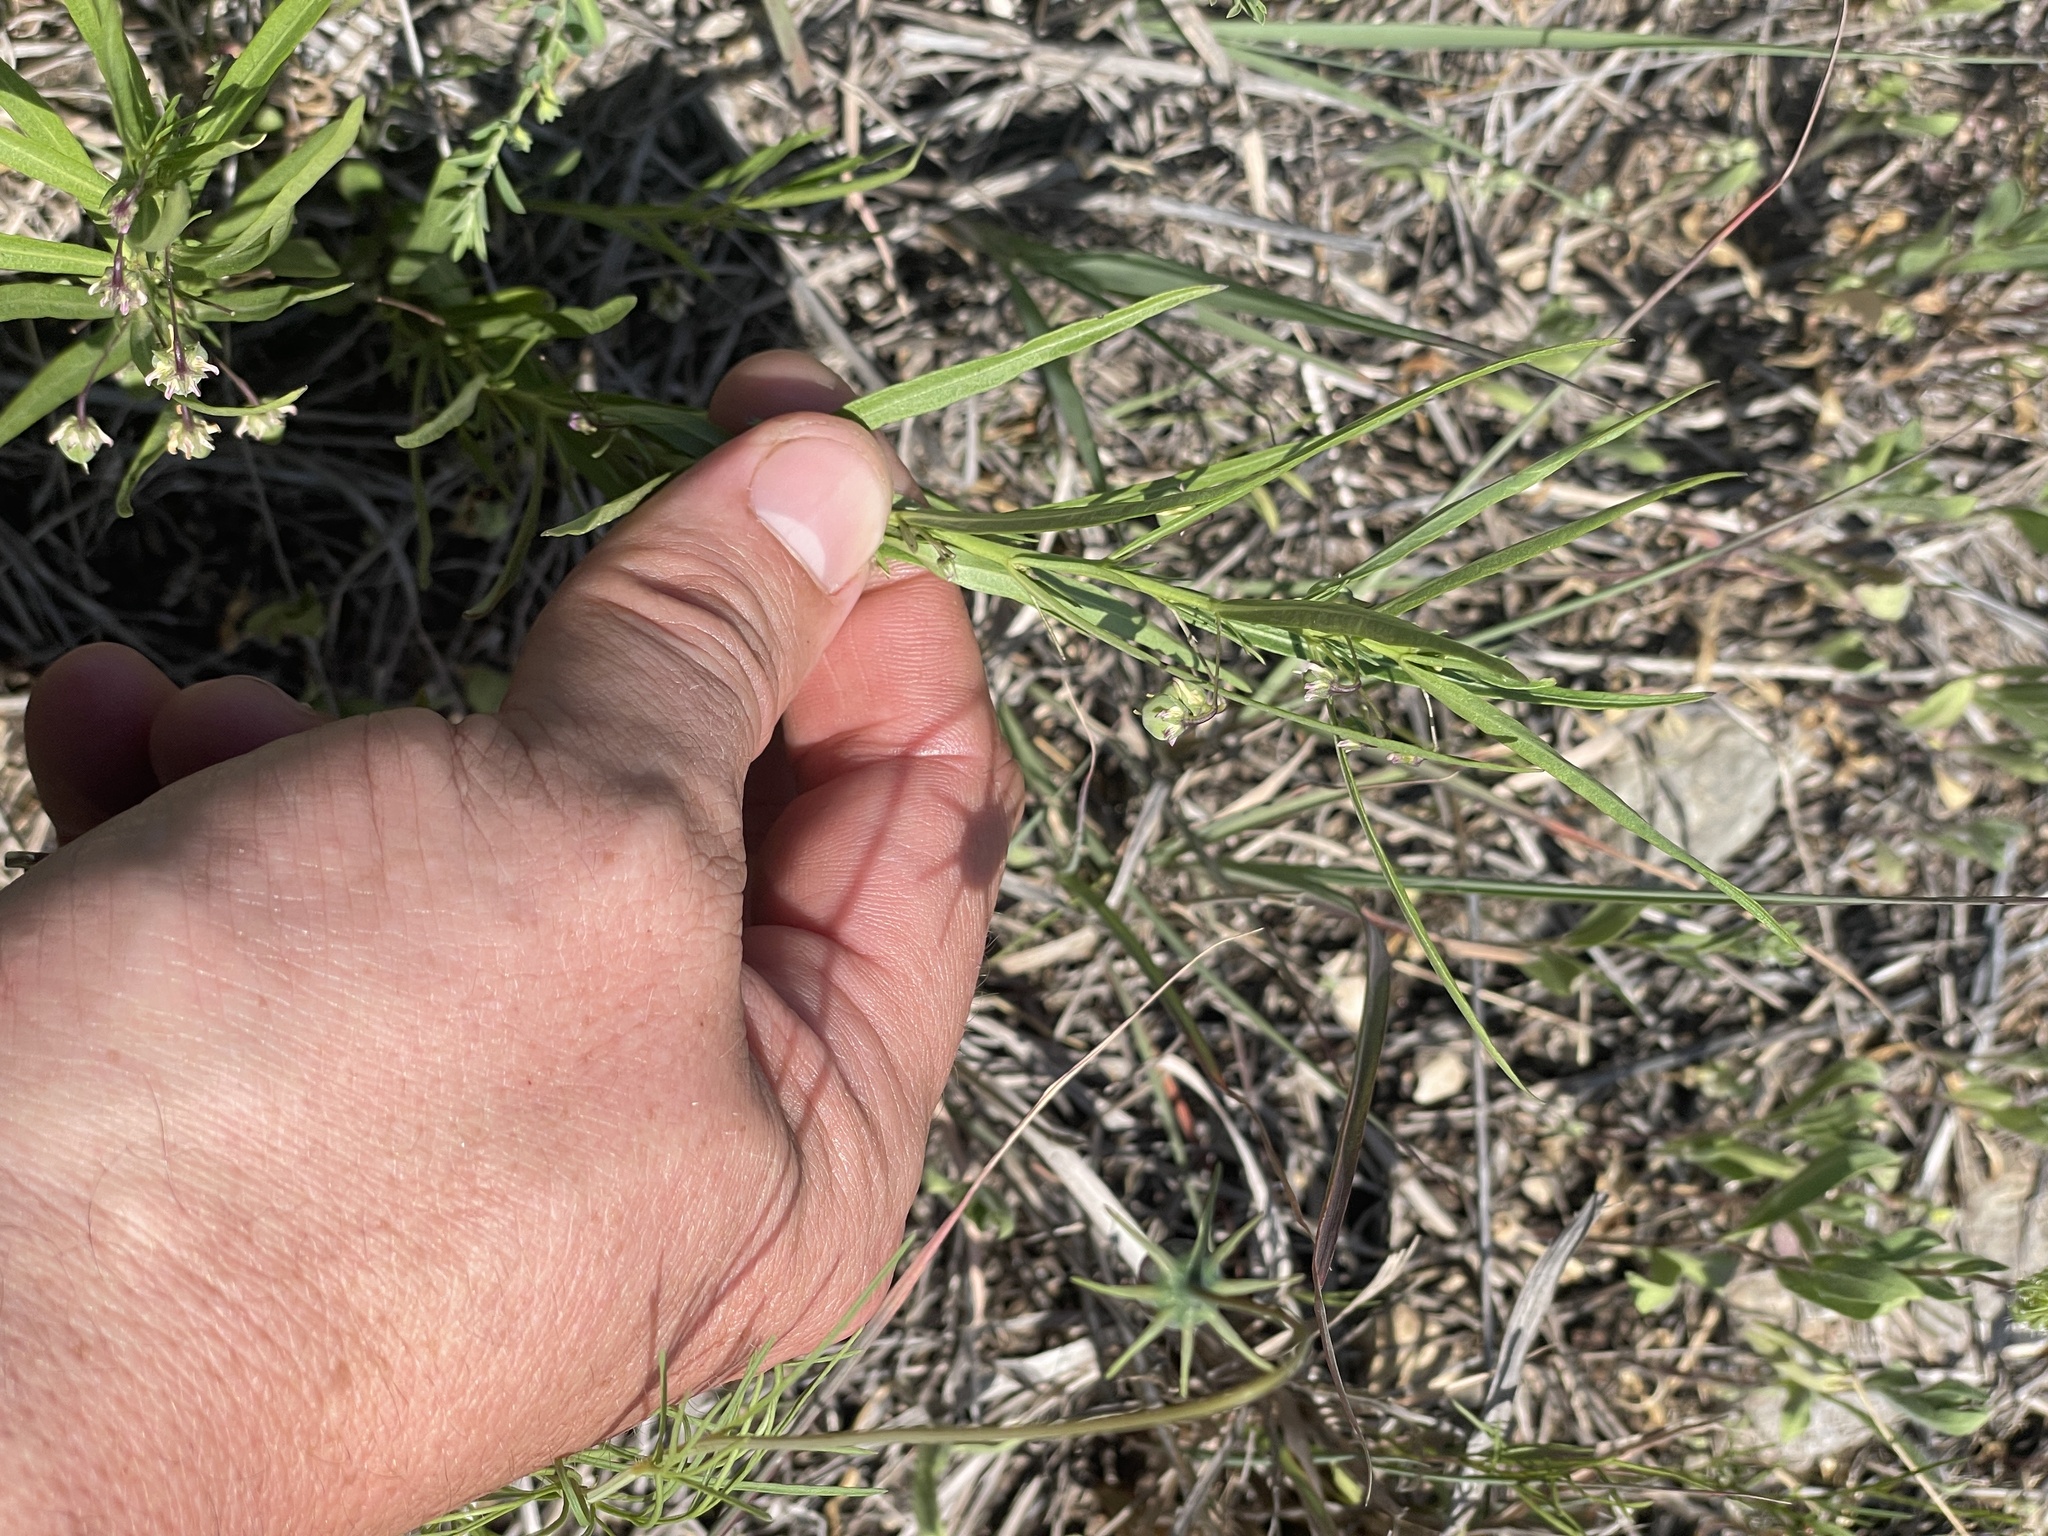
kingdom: Plantae
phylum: Tracheophyta
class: Magnoliopsida
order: Malpighiales
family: Violaceae
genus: Pombalia
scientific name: Pombalia verticillata
